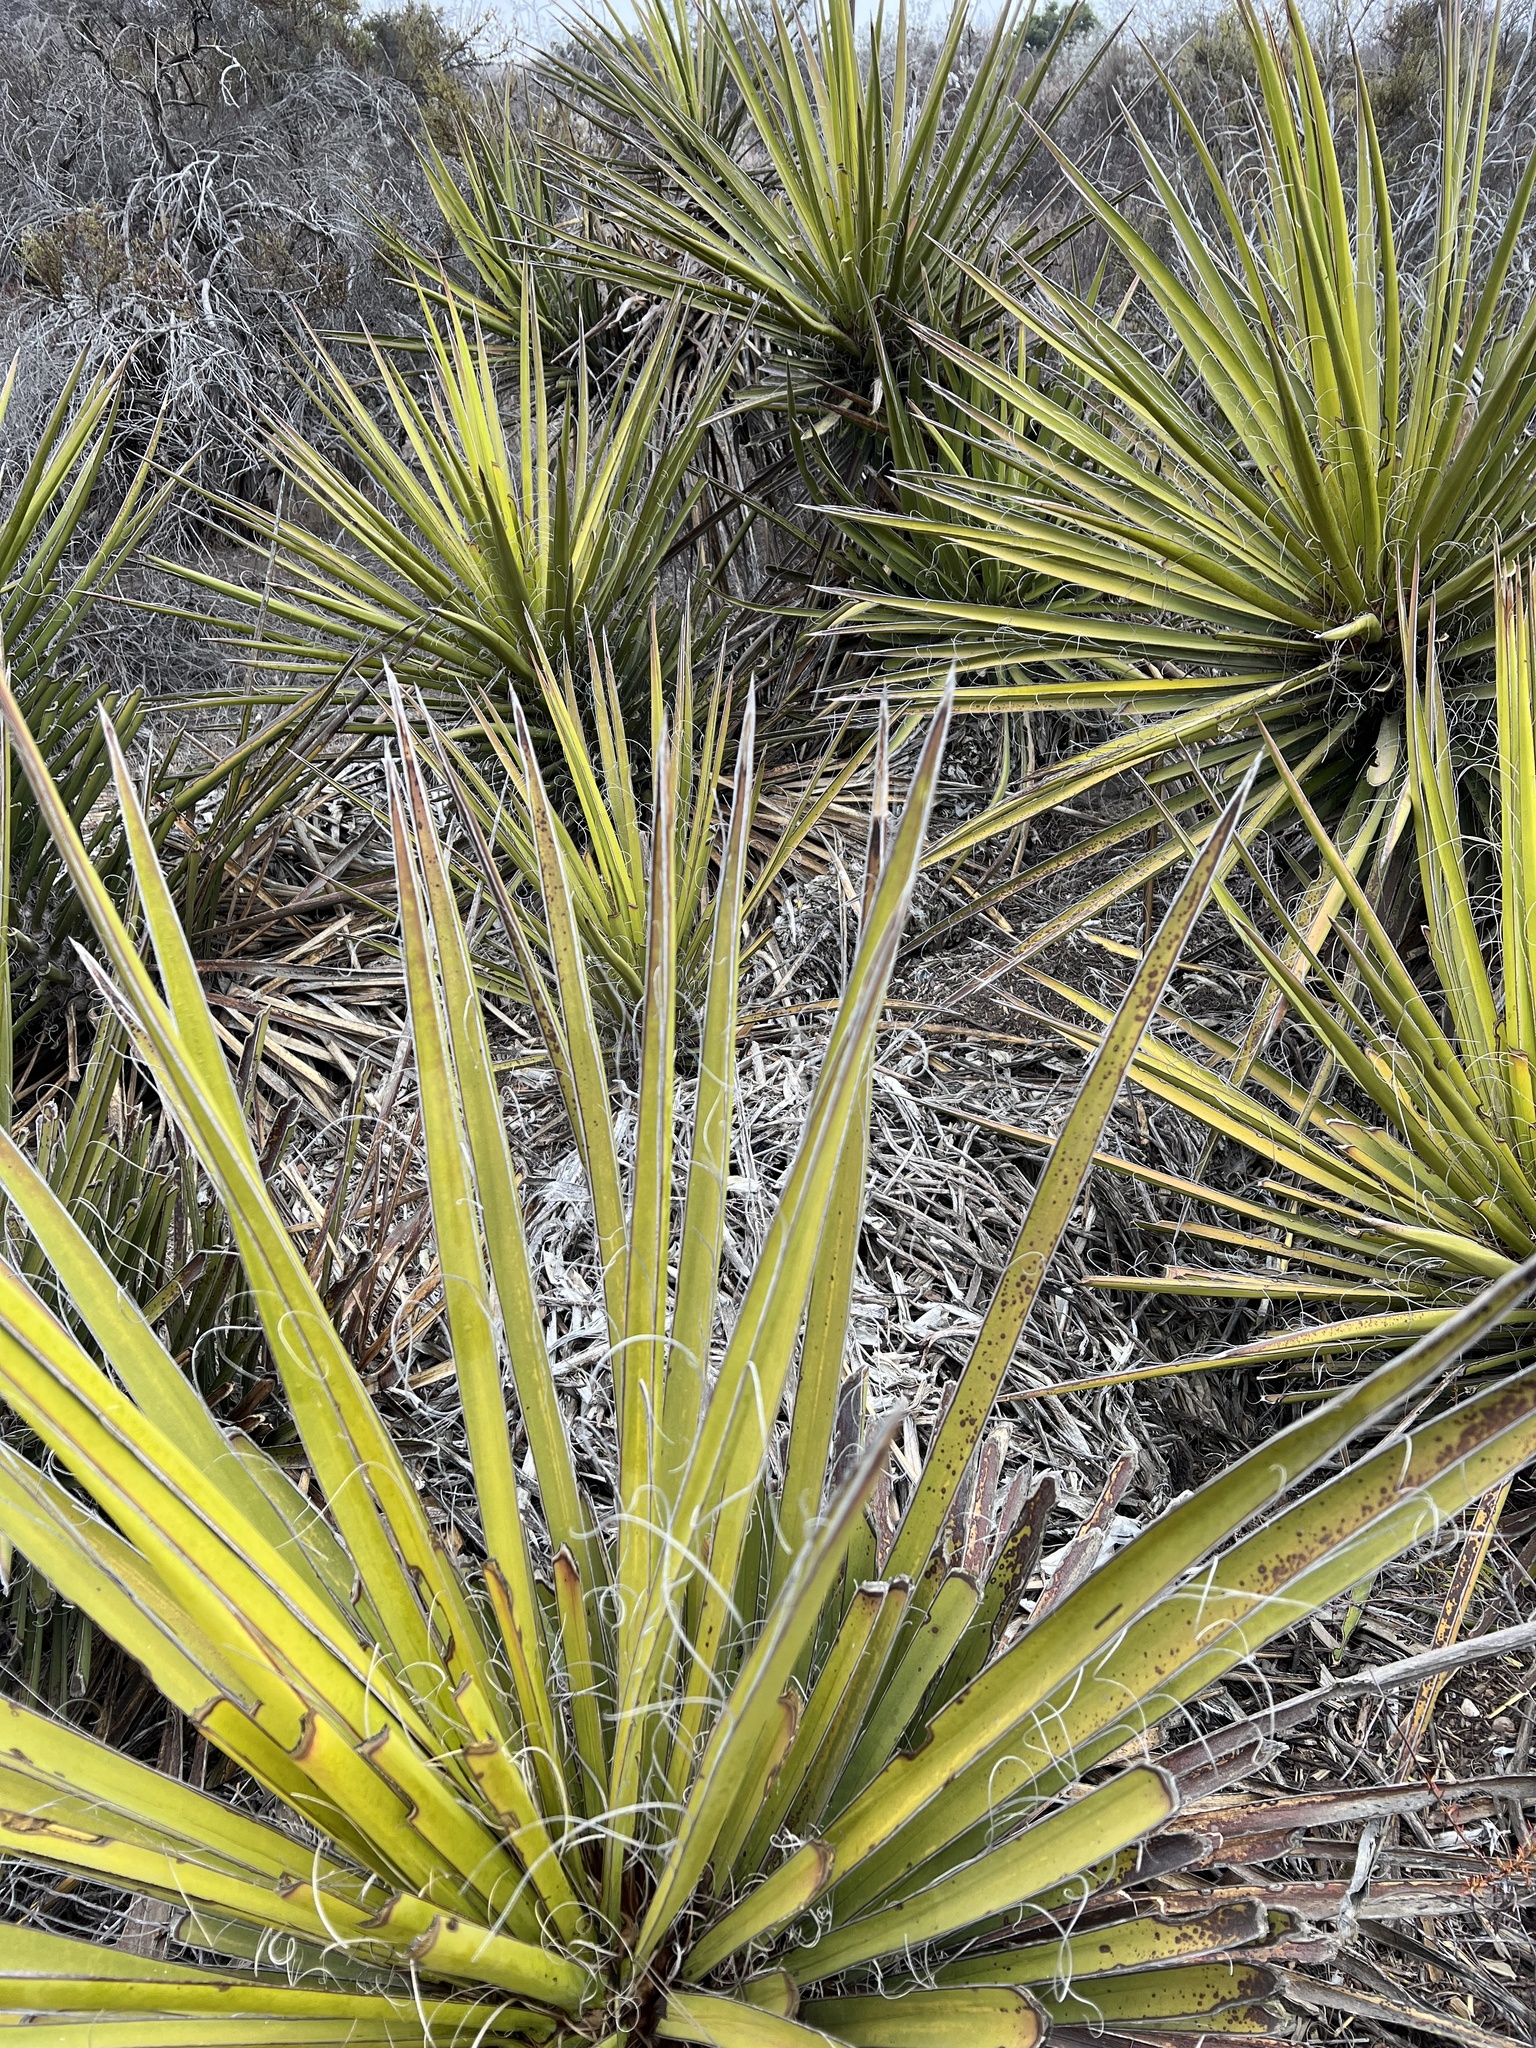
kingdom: Plantae
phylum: Tracheophyta
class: Liliopsida
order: Asparagales
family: Asparagaceae
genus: Yucca
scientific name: Yucca schidigera
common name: Mojave yucca
